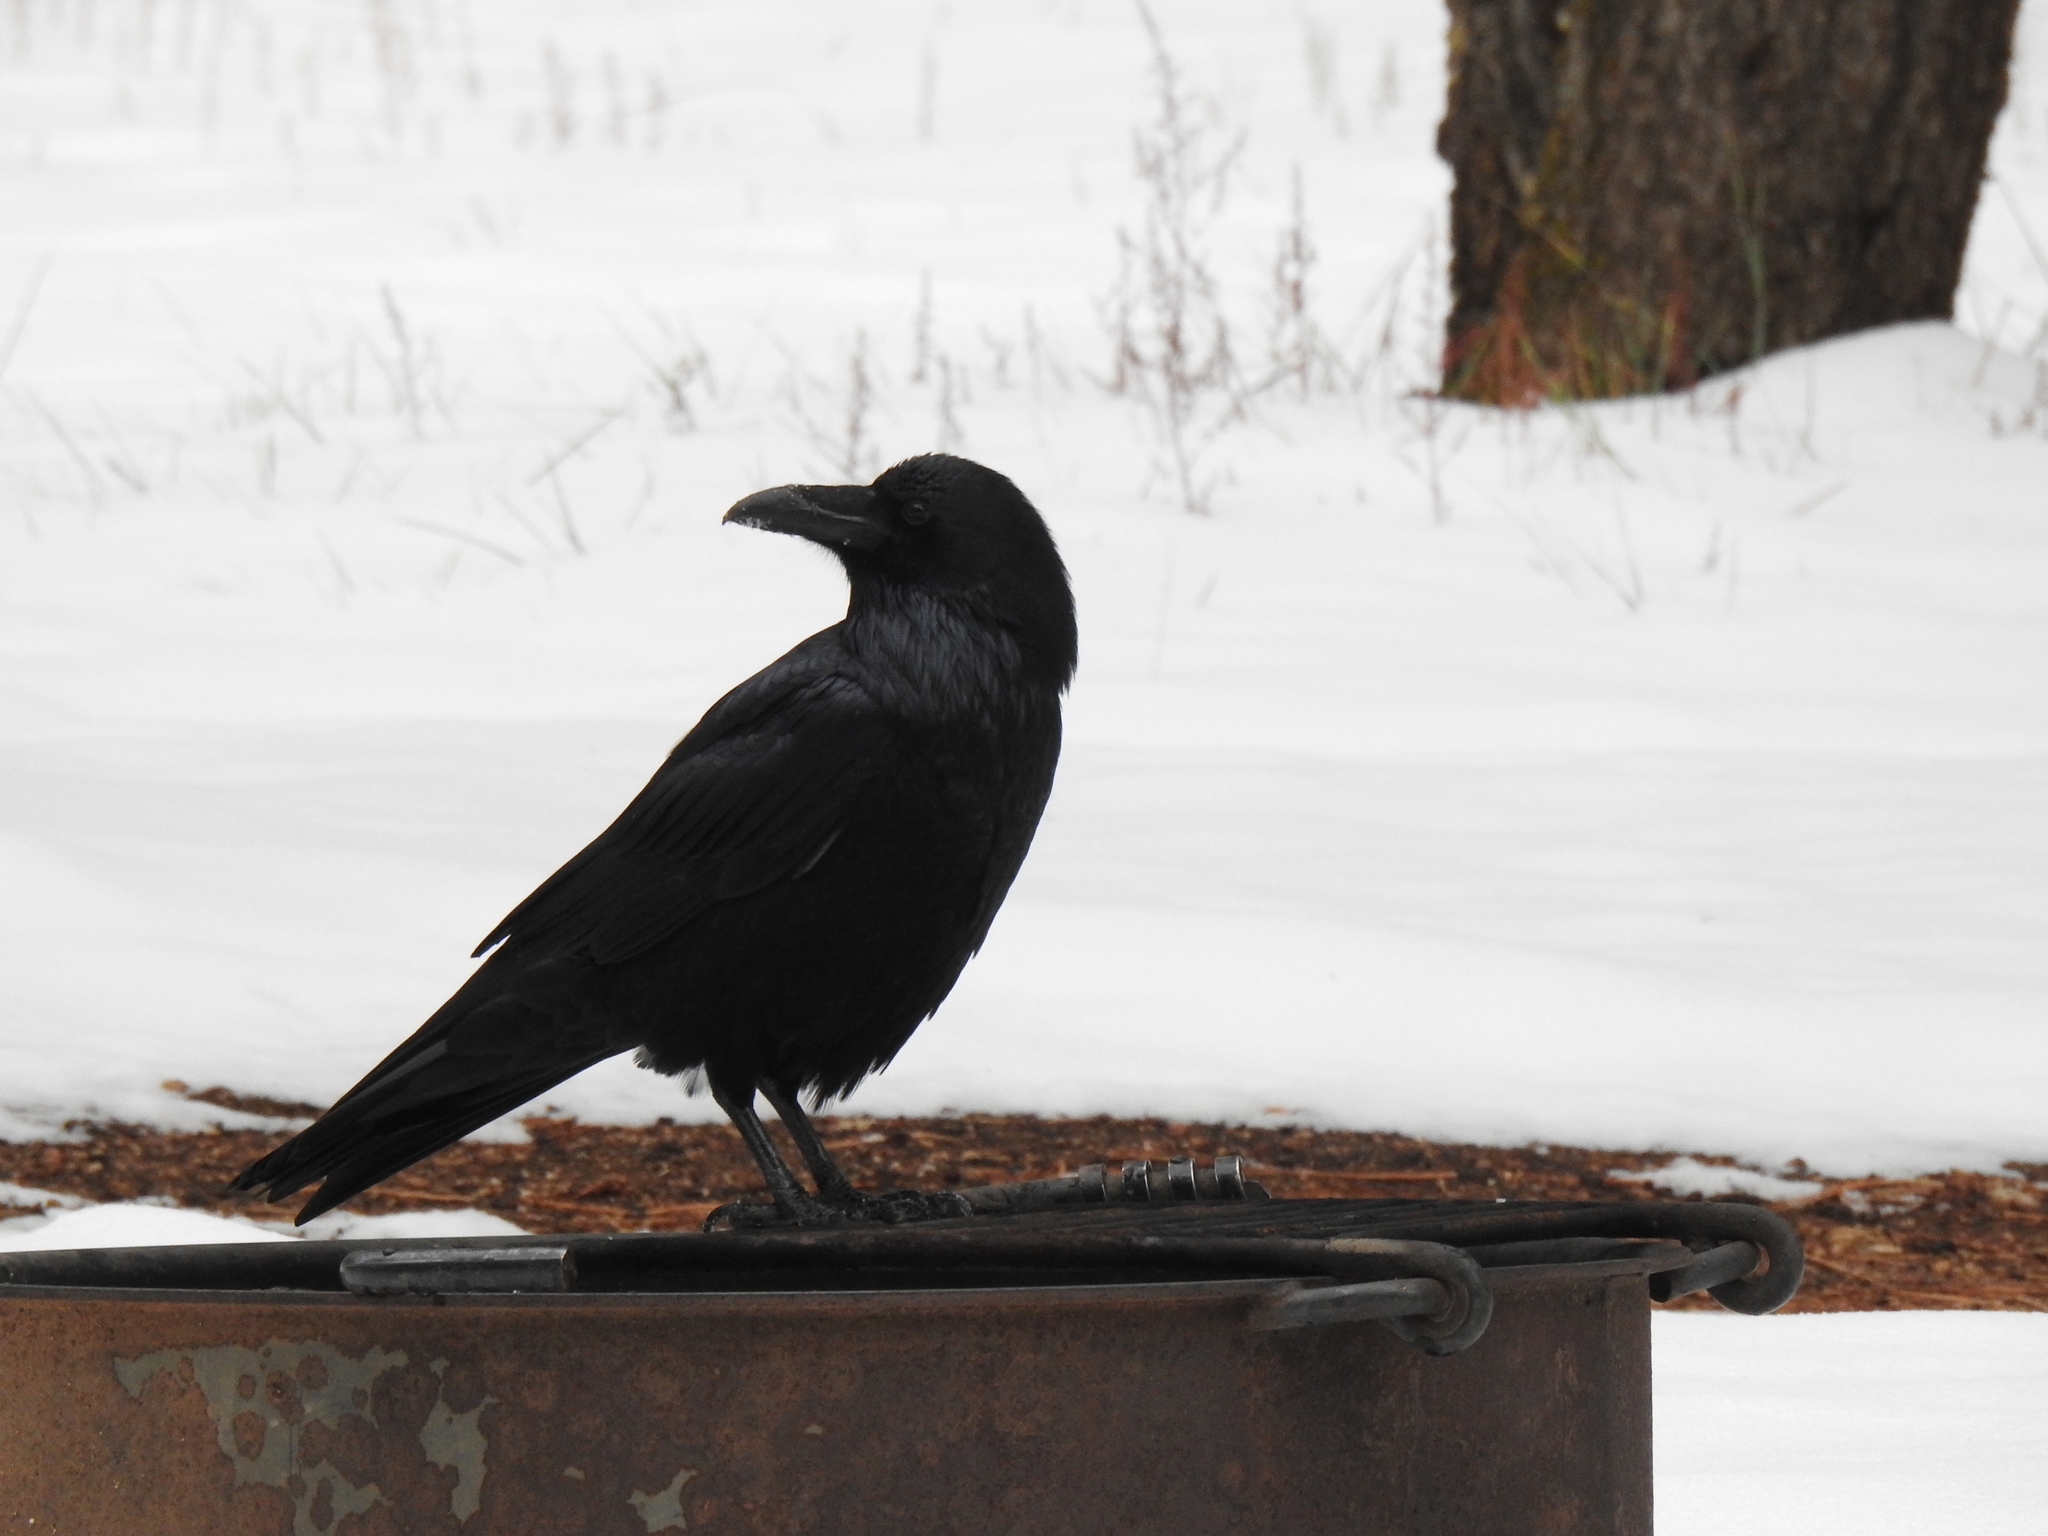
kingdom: Animalia
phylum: Chordata
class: Aves
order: Passeriformes
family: Corvidae
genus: Corvus
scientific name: Corvus corax
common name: Common raven
